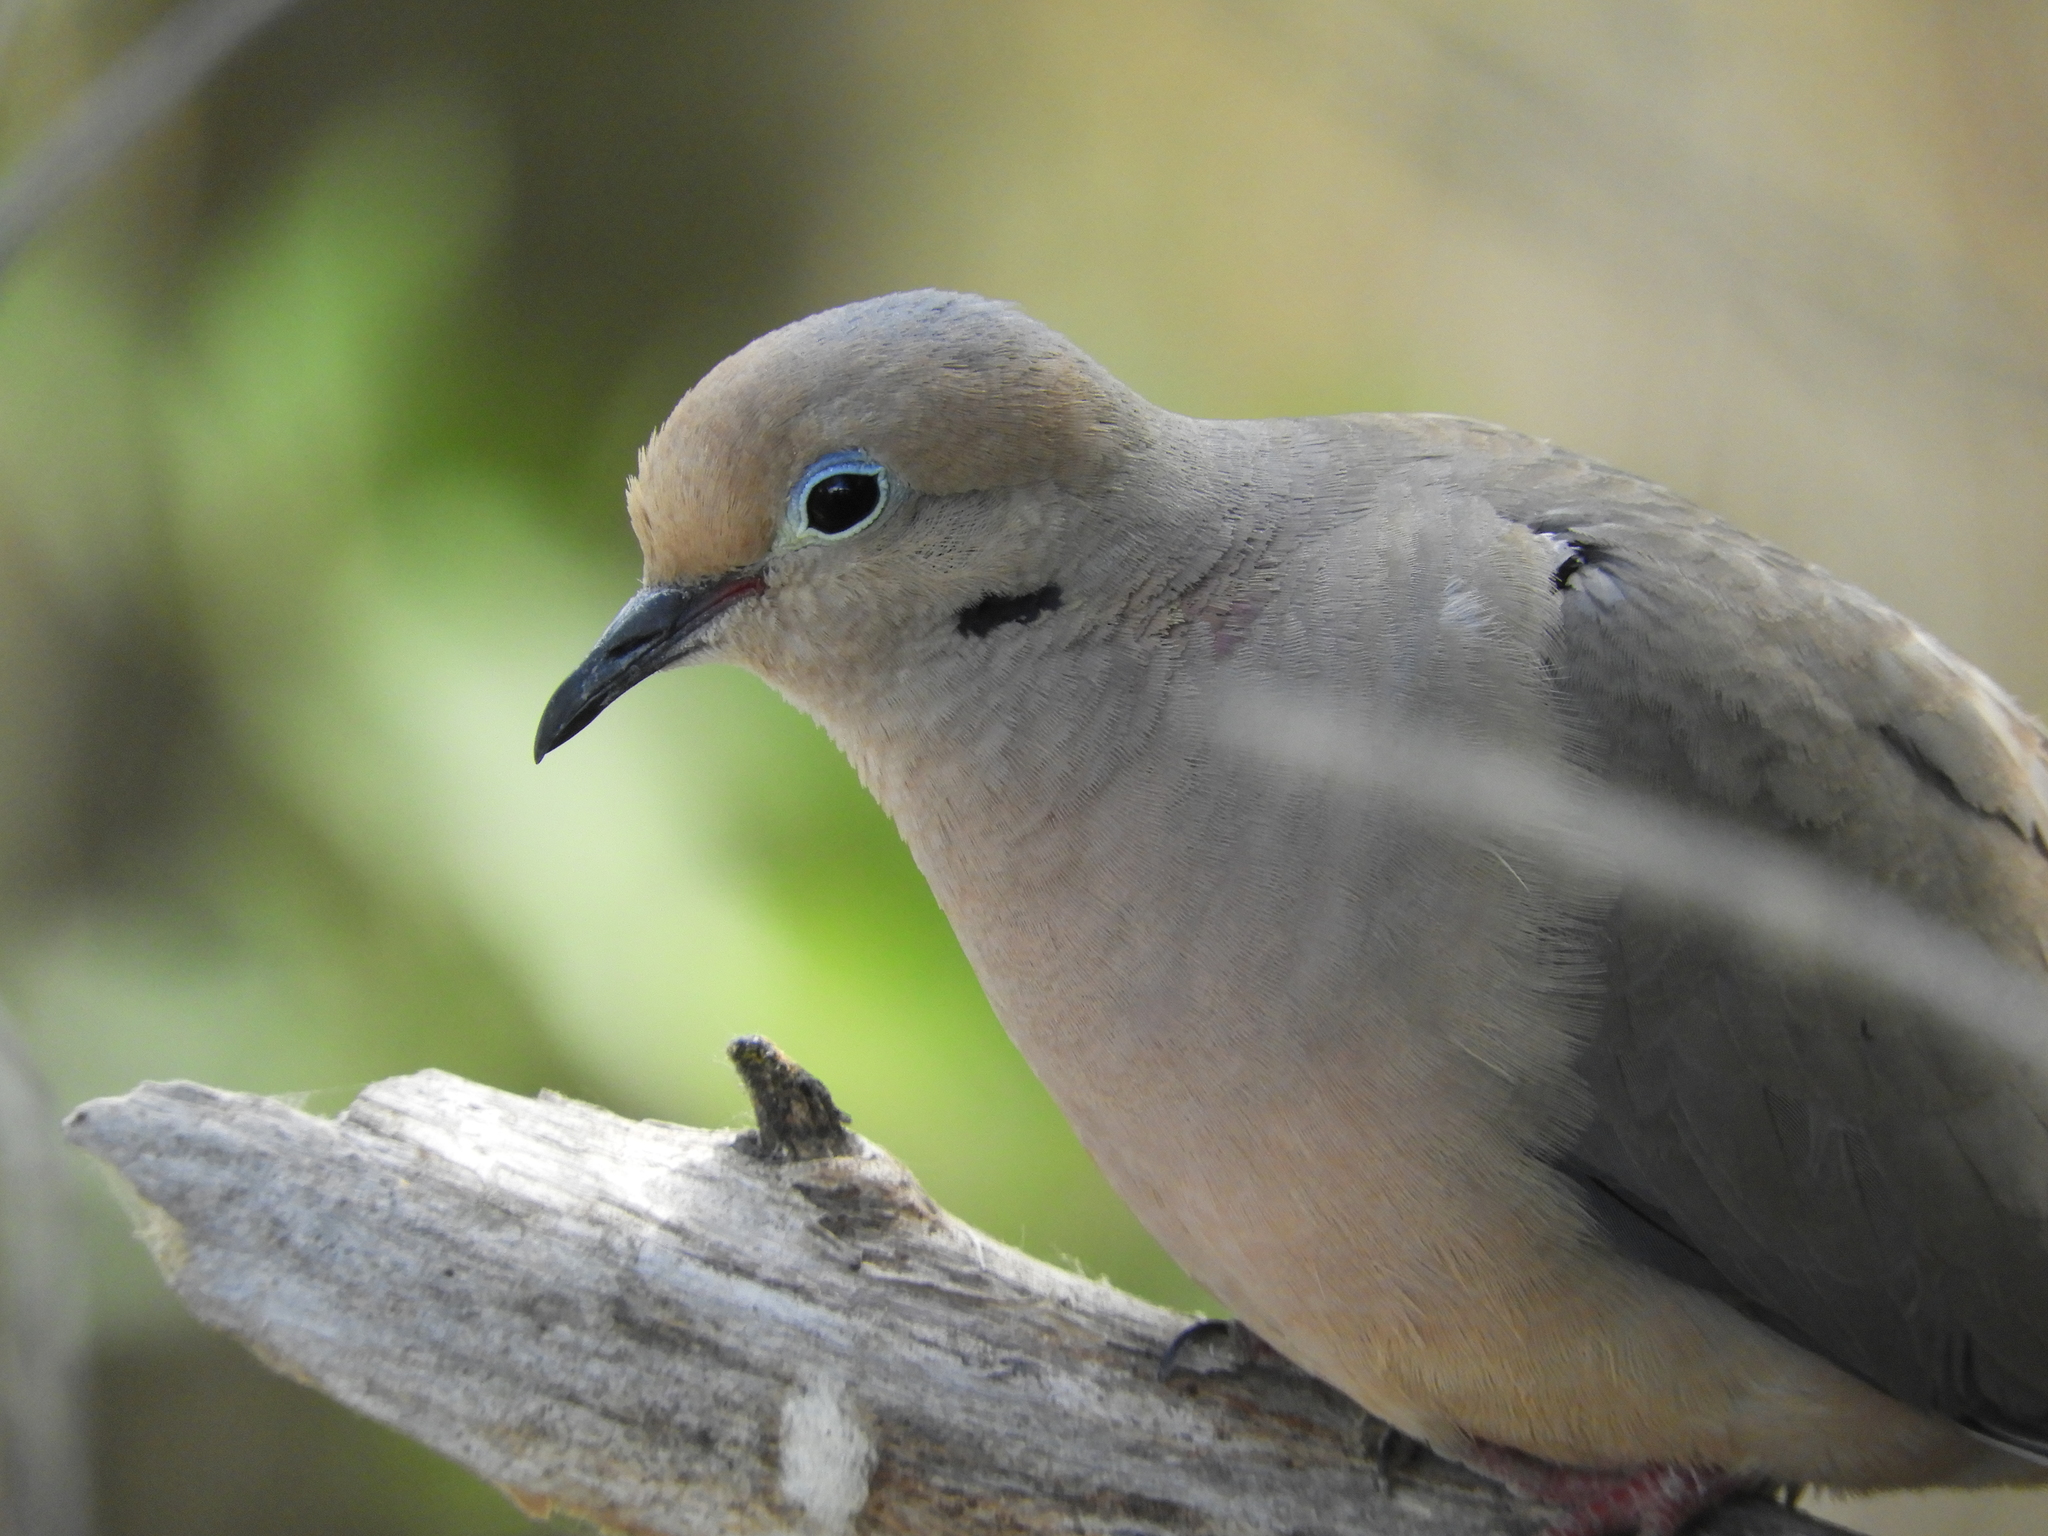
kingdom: Animalia
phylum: Chordata
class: Aves
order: Columbiformes
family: Columbidae
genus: Zenaida
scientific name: Zenaida macroura
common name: Mourning dove
